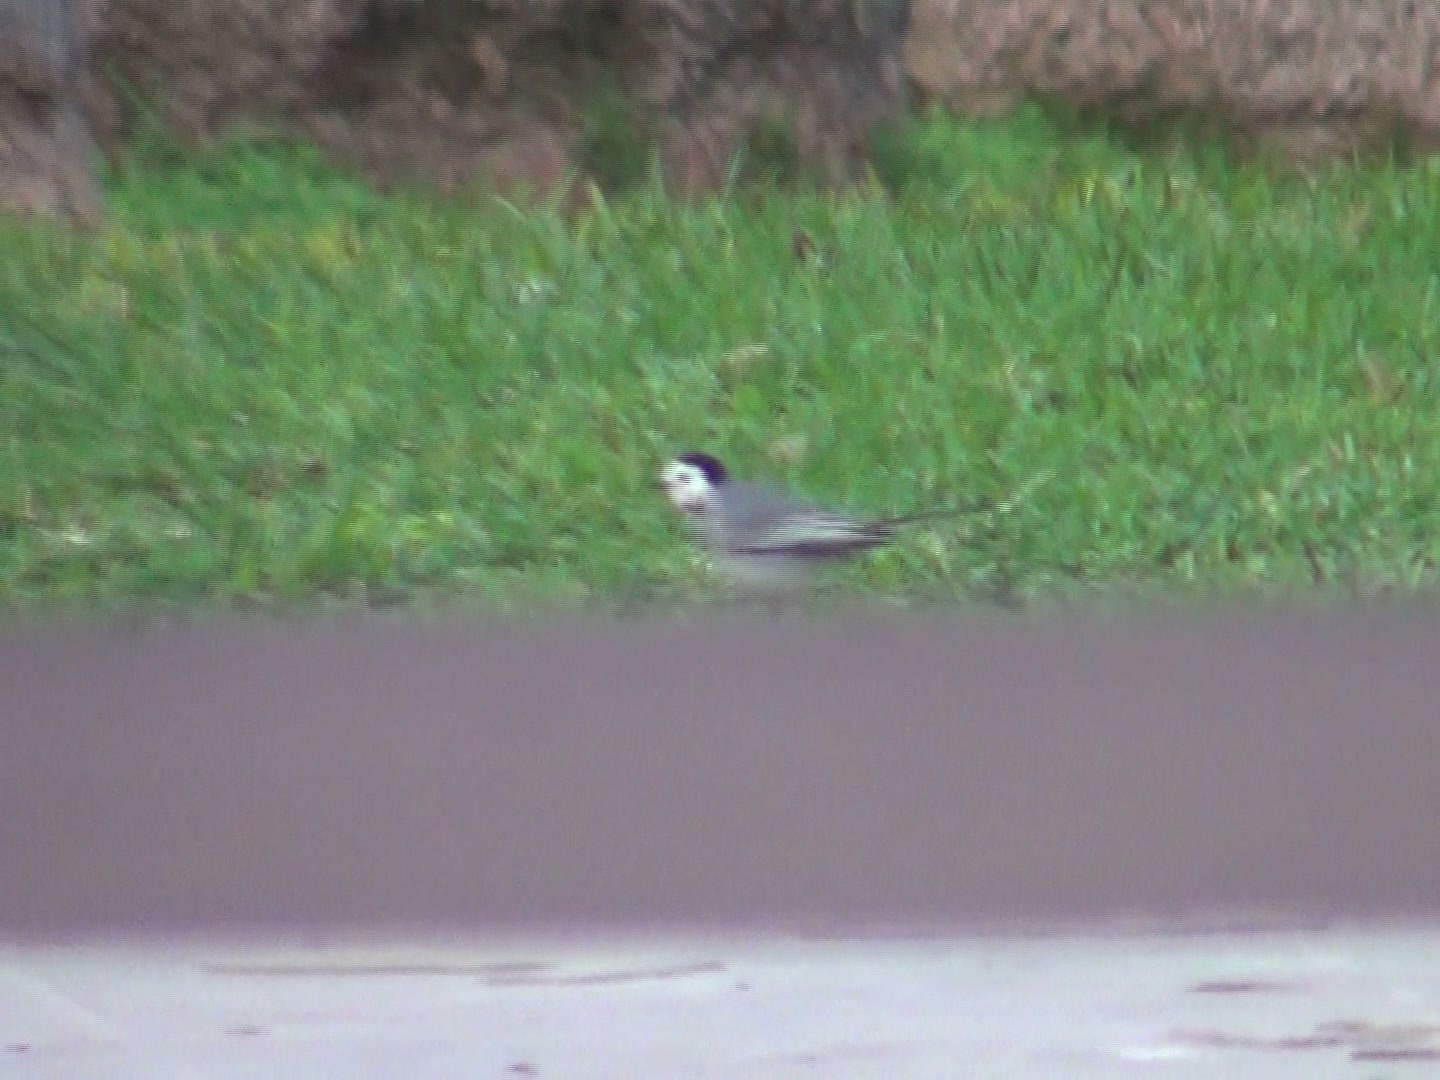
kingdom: Animalia
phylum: Chordata
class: Aves
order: Passeriformes
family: Motacillidae
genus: Motacilla
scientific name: Motacilla alba
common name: White wagtail
